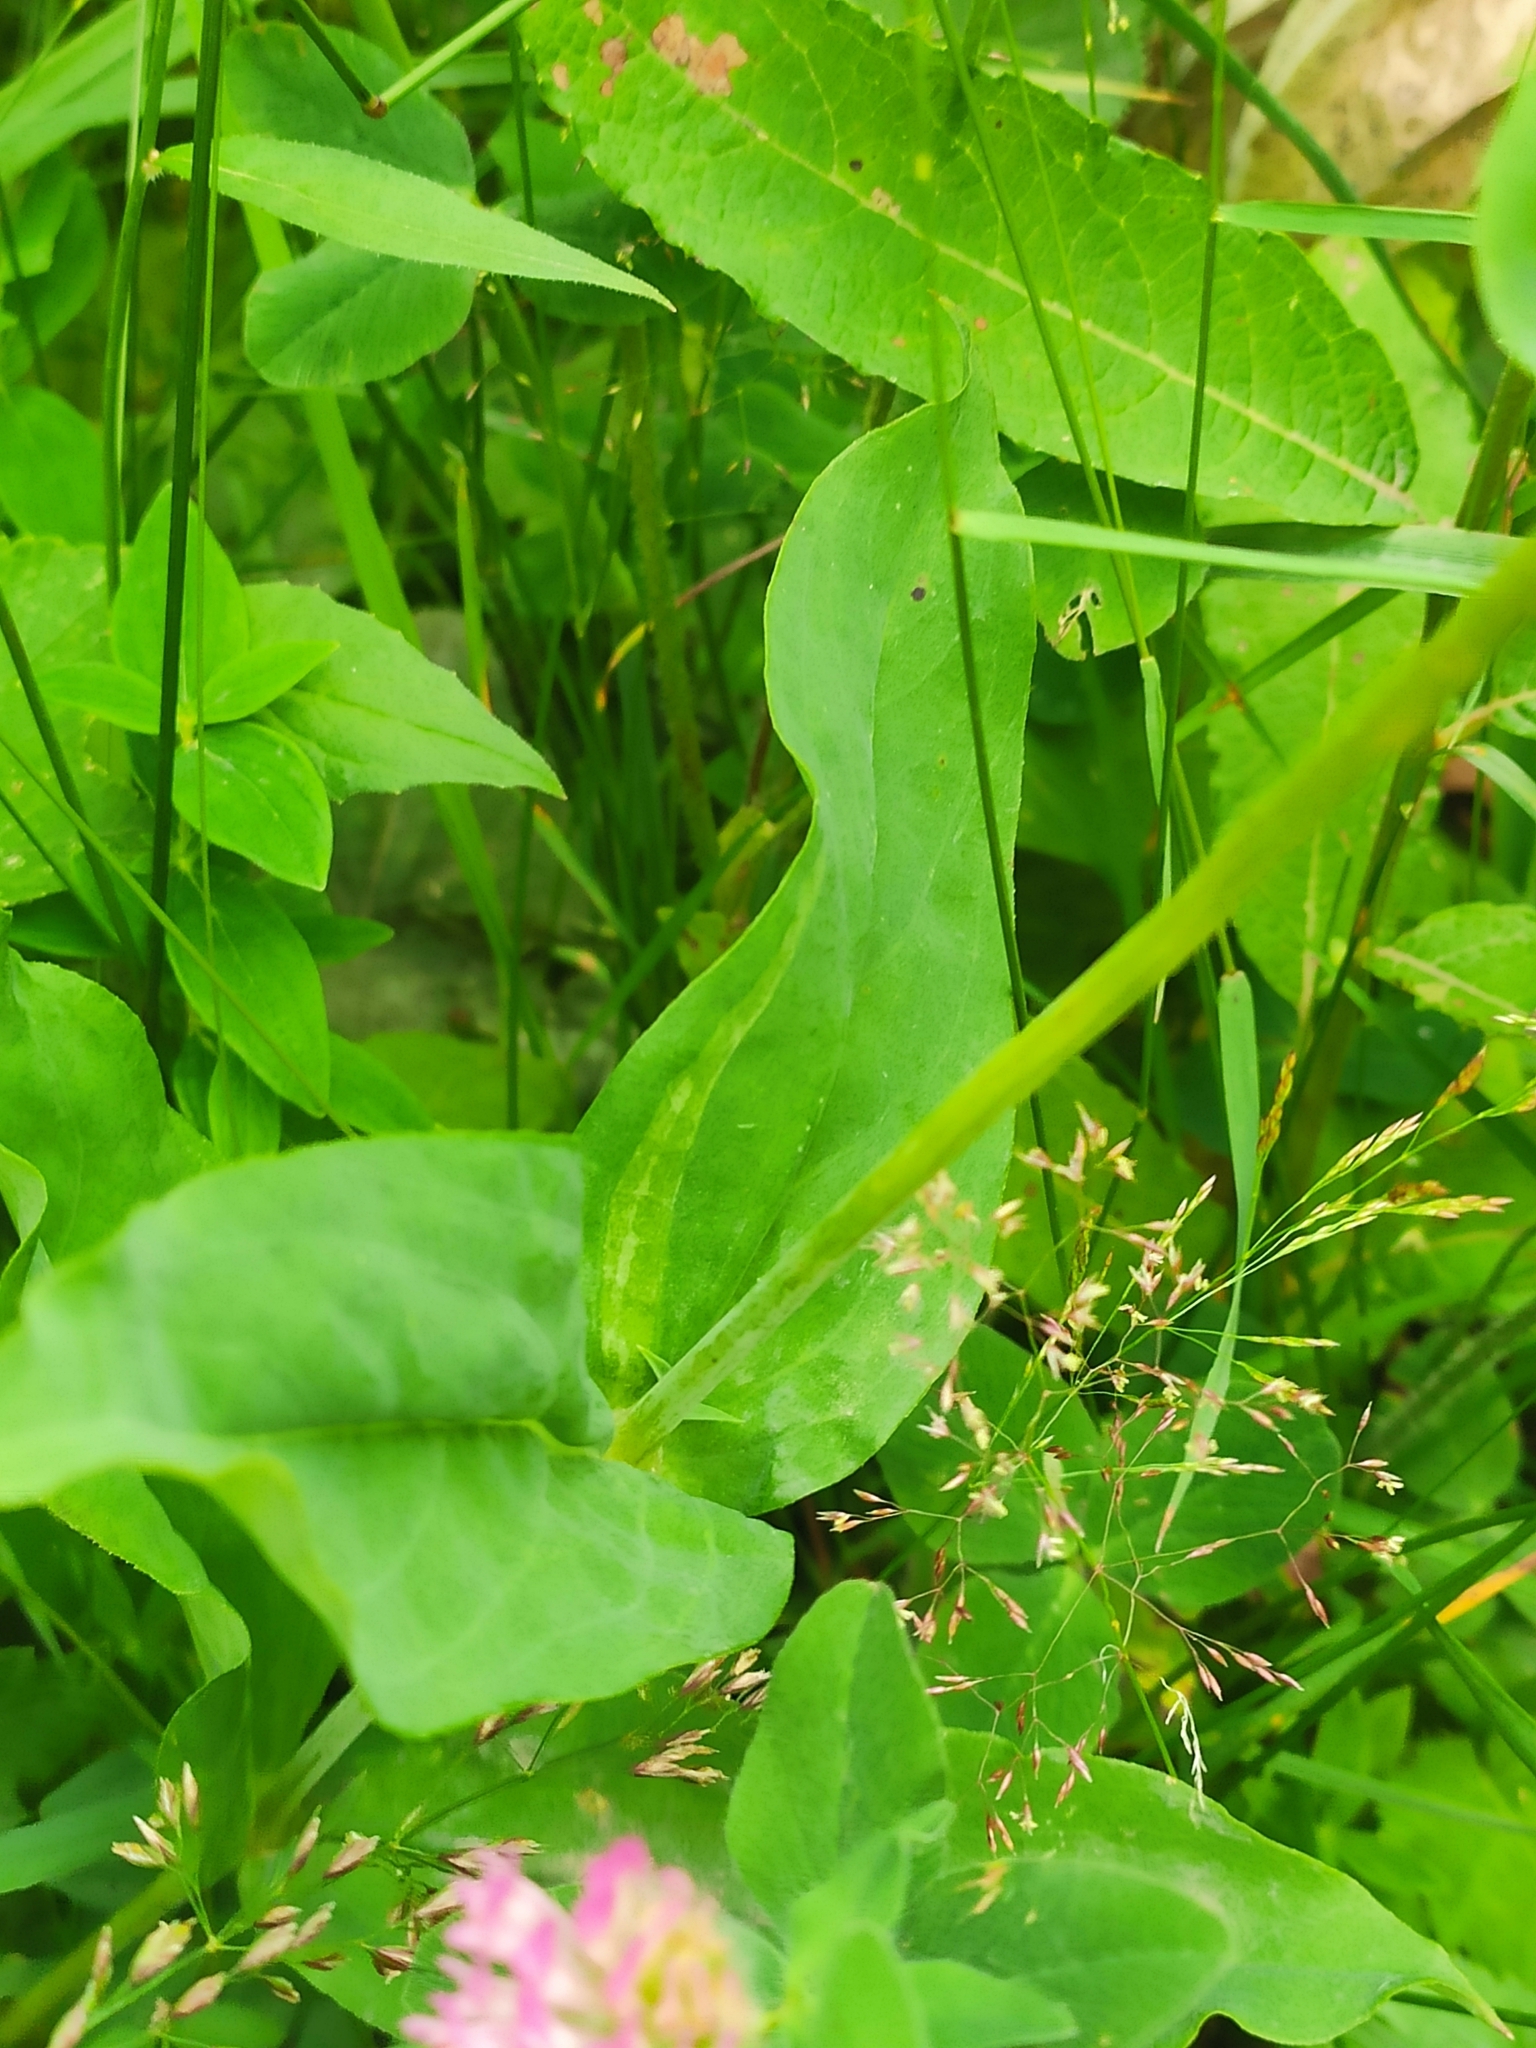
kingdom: Plantae
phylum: Tracheophyta
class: Magnoliopsida
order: Caryophyllales
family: Caryophyllaceae
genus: Silene
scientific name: Silene vulgaris
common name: Bladder campion
